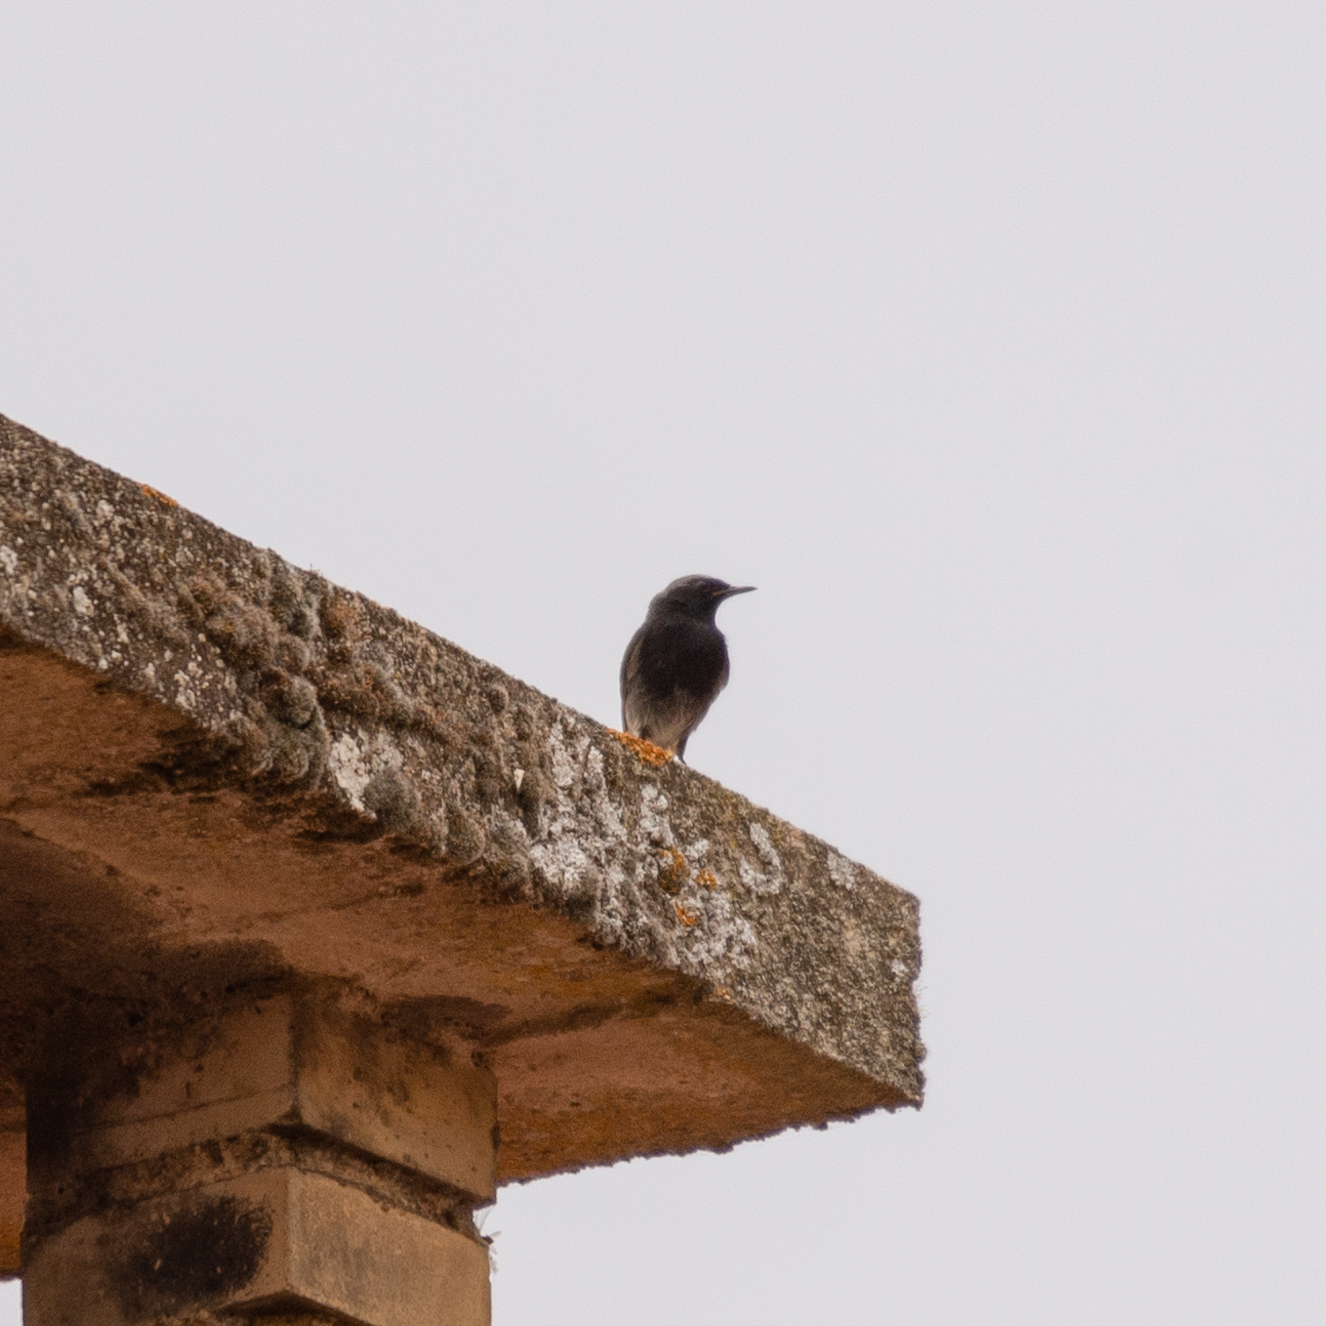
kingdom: Animalia
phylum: Chordata
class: Aves
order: Passeriformes
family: Muscicapidae
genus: Phoenicurus
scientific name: Phoenicurus ochruros
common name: Black redstart
